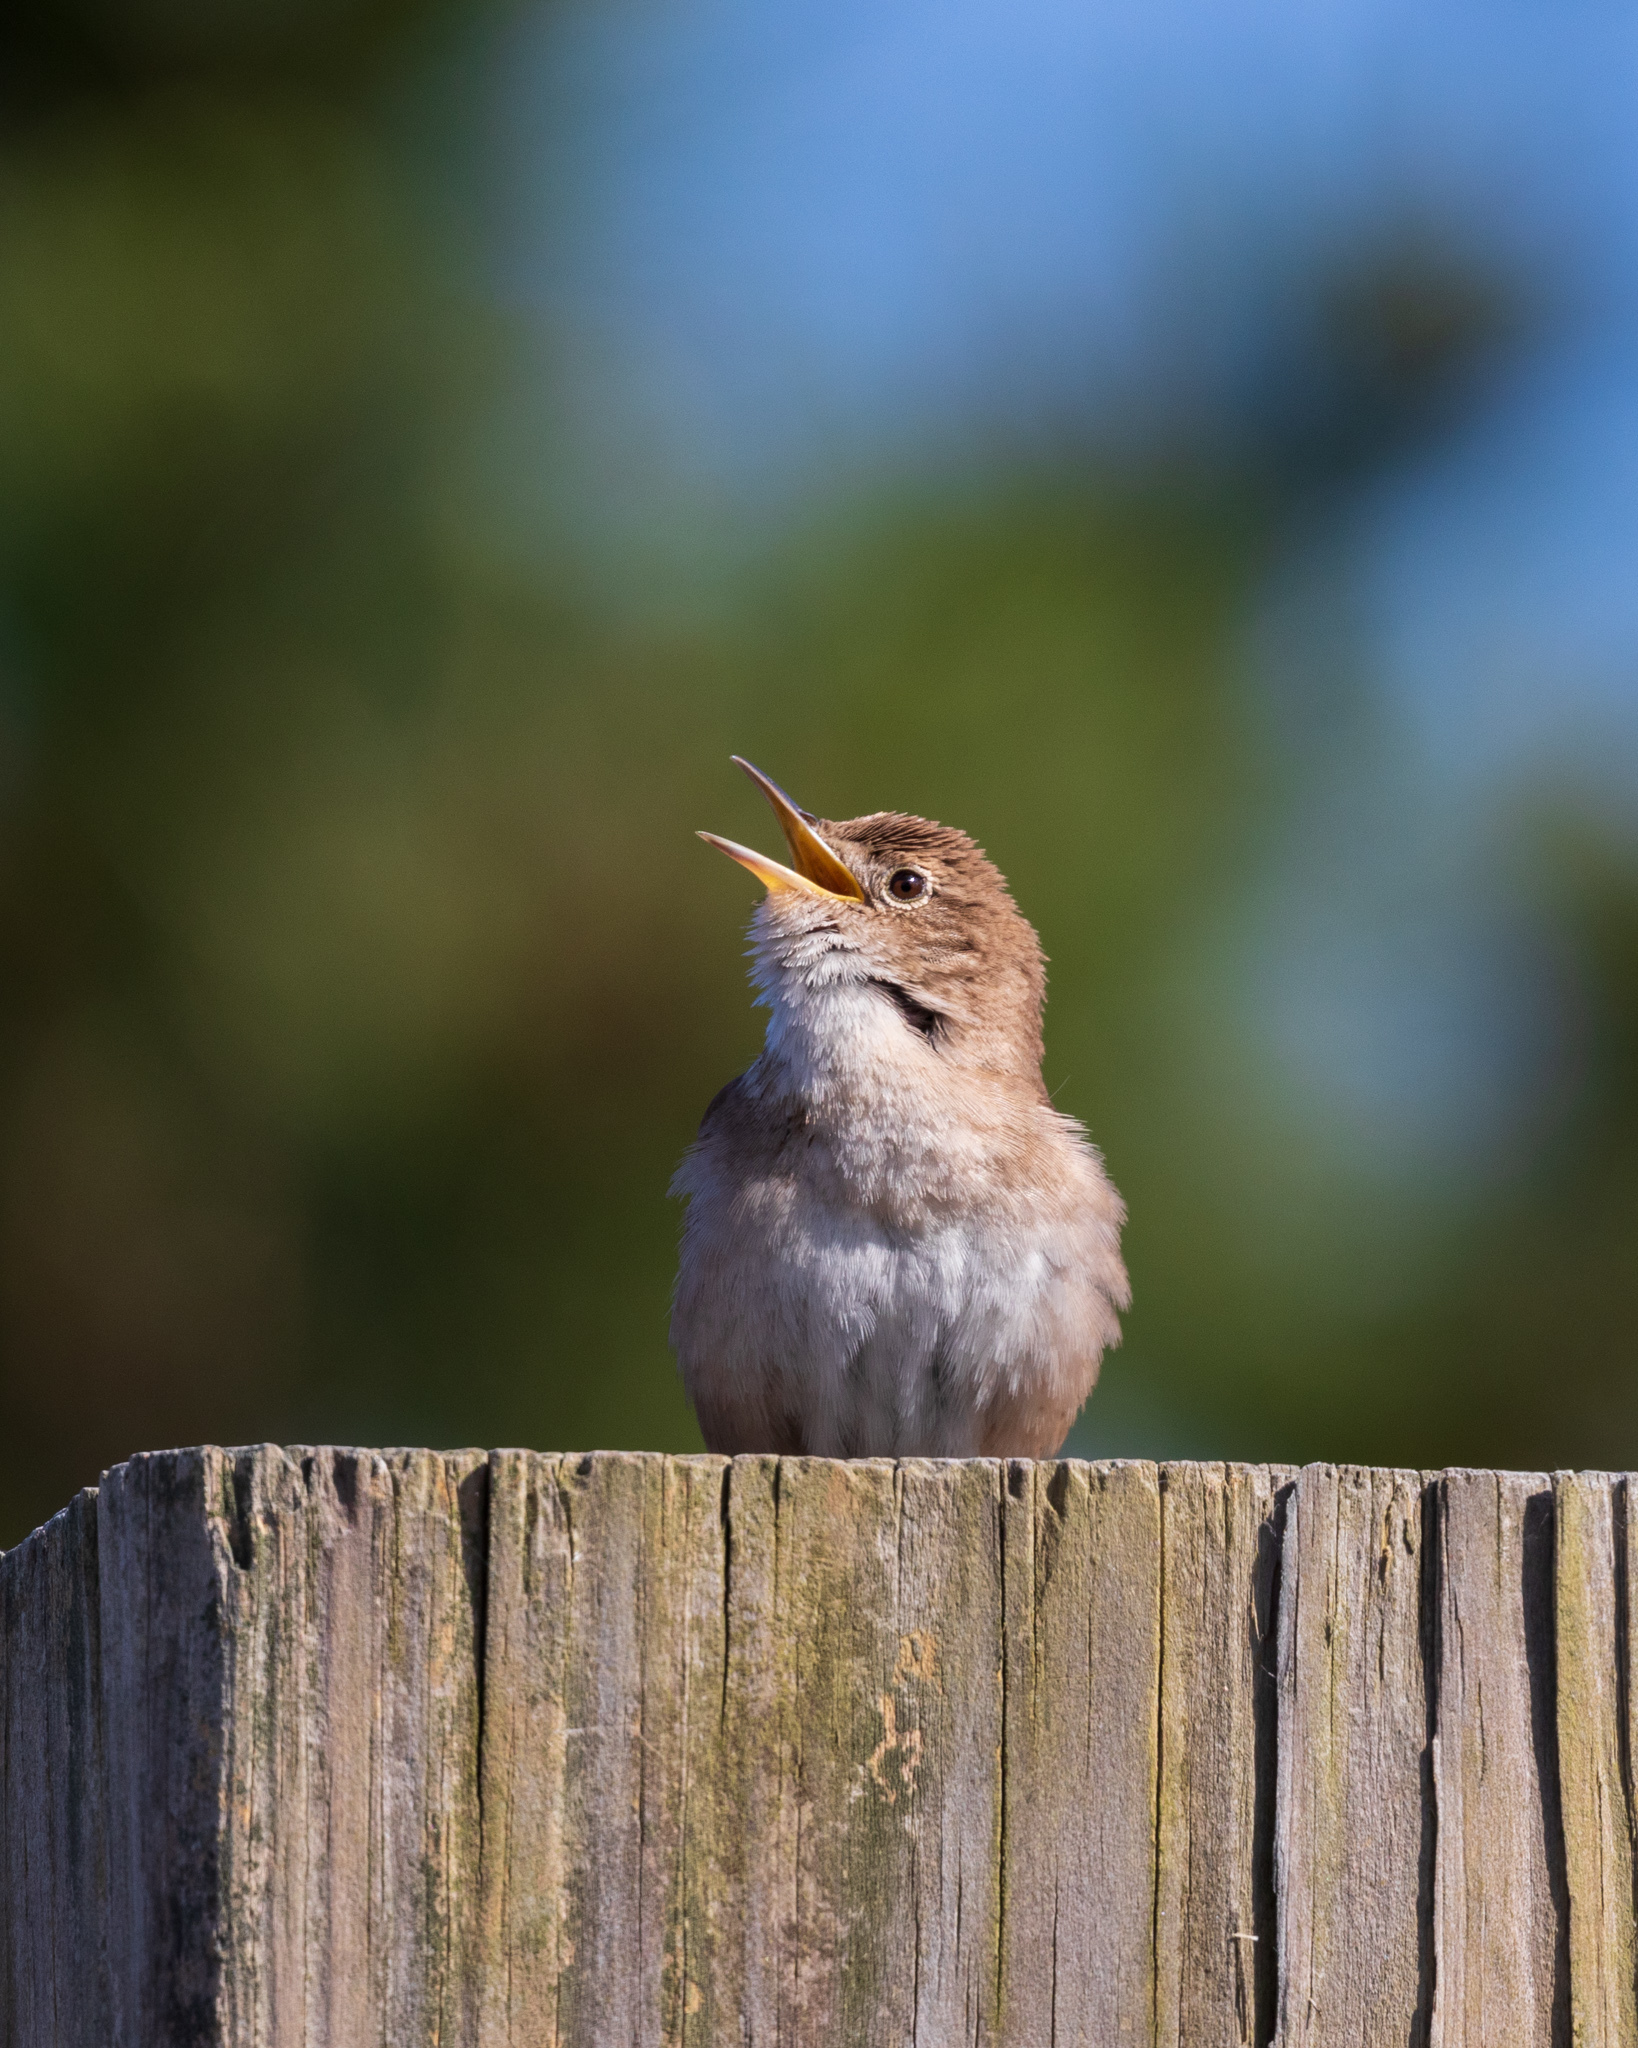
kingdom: Animalia
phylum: Chordata
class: Aves
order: Passeriformes
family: Troglodytidae
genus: Troglodytes
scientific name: Troglodytes aedon
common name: House wren
